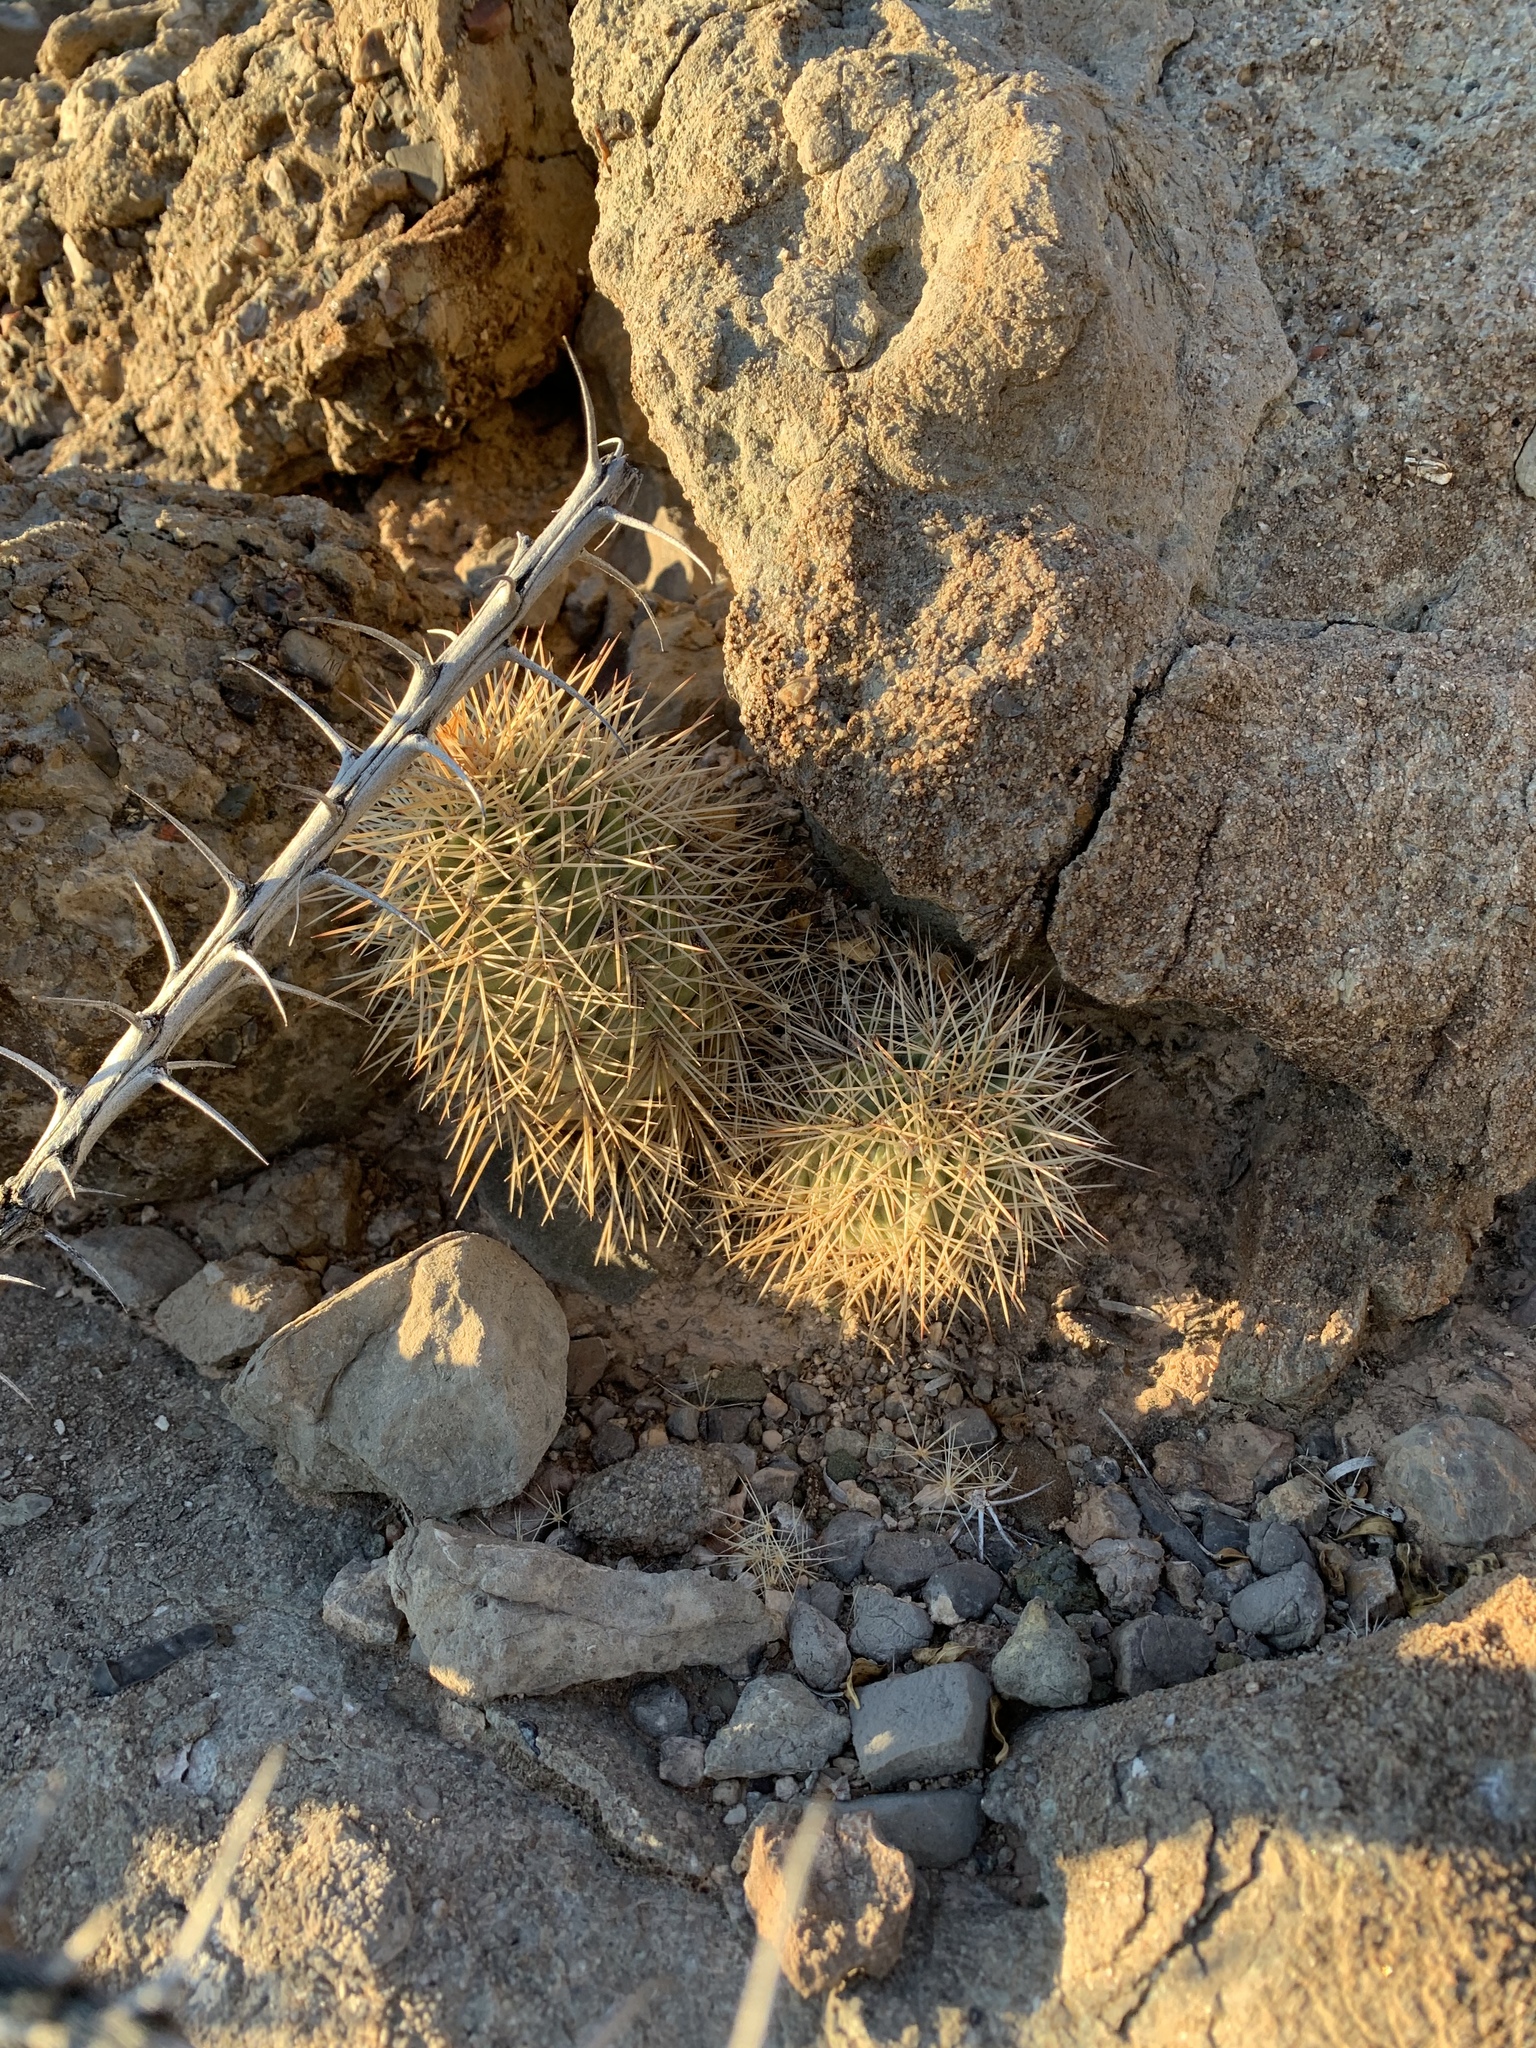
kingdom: Plantae
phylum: Tracheophyta
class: Magnoliopsida
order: Caryophyllales
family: Cactaceae
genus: Echinocereus
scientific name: Echinocereus dasyacanthus
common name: Spiny hedgehog cactus
